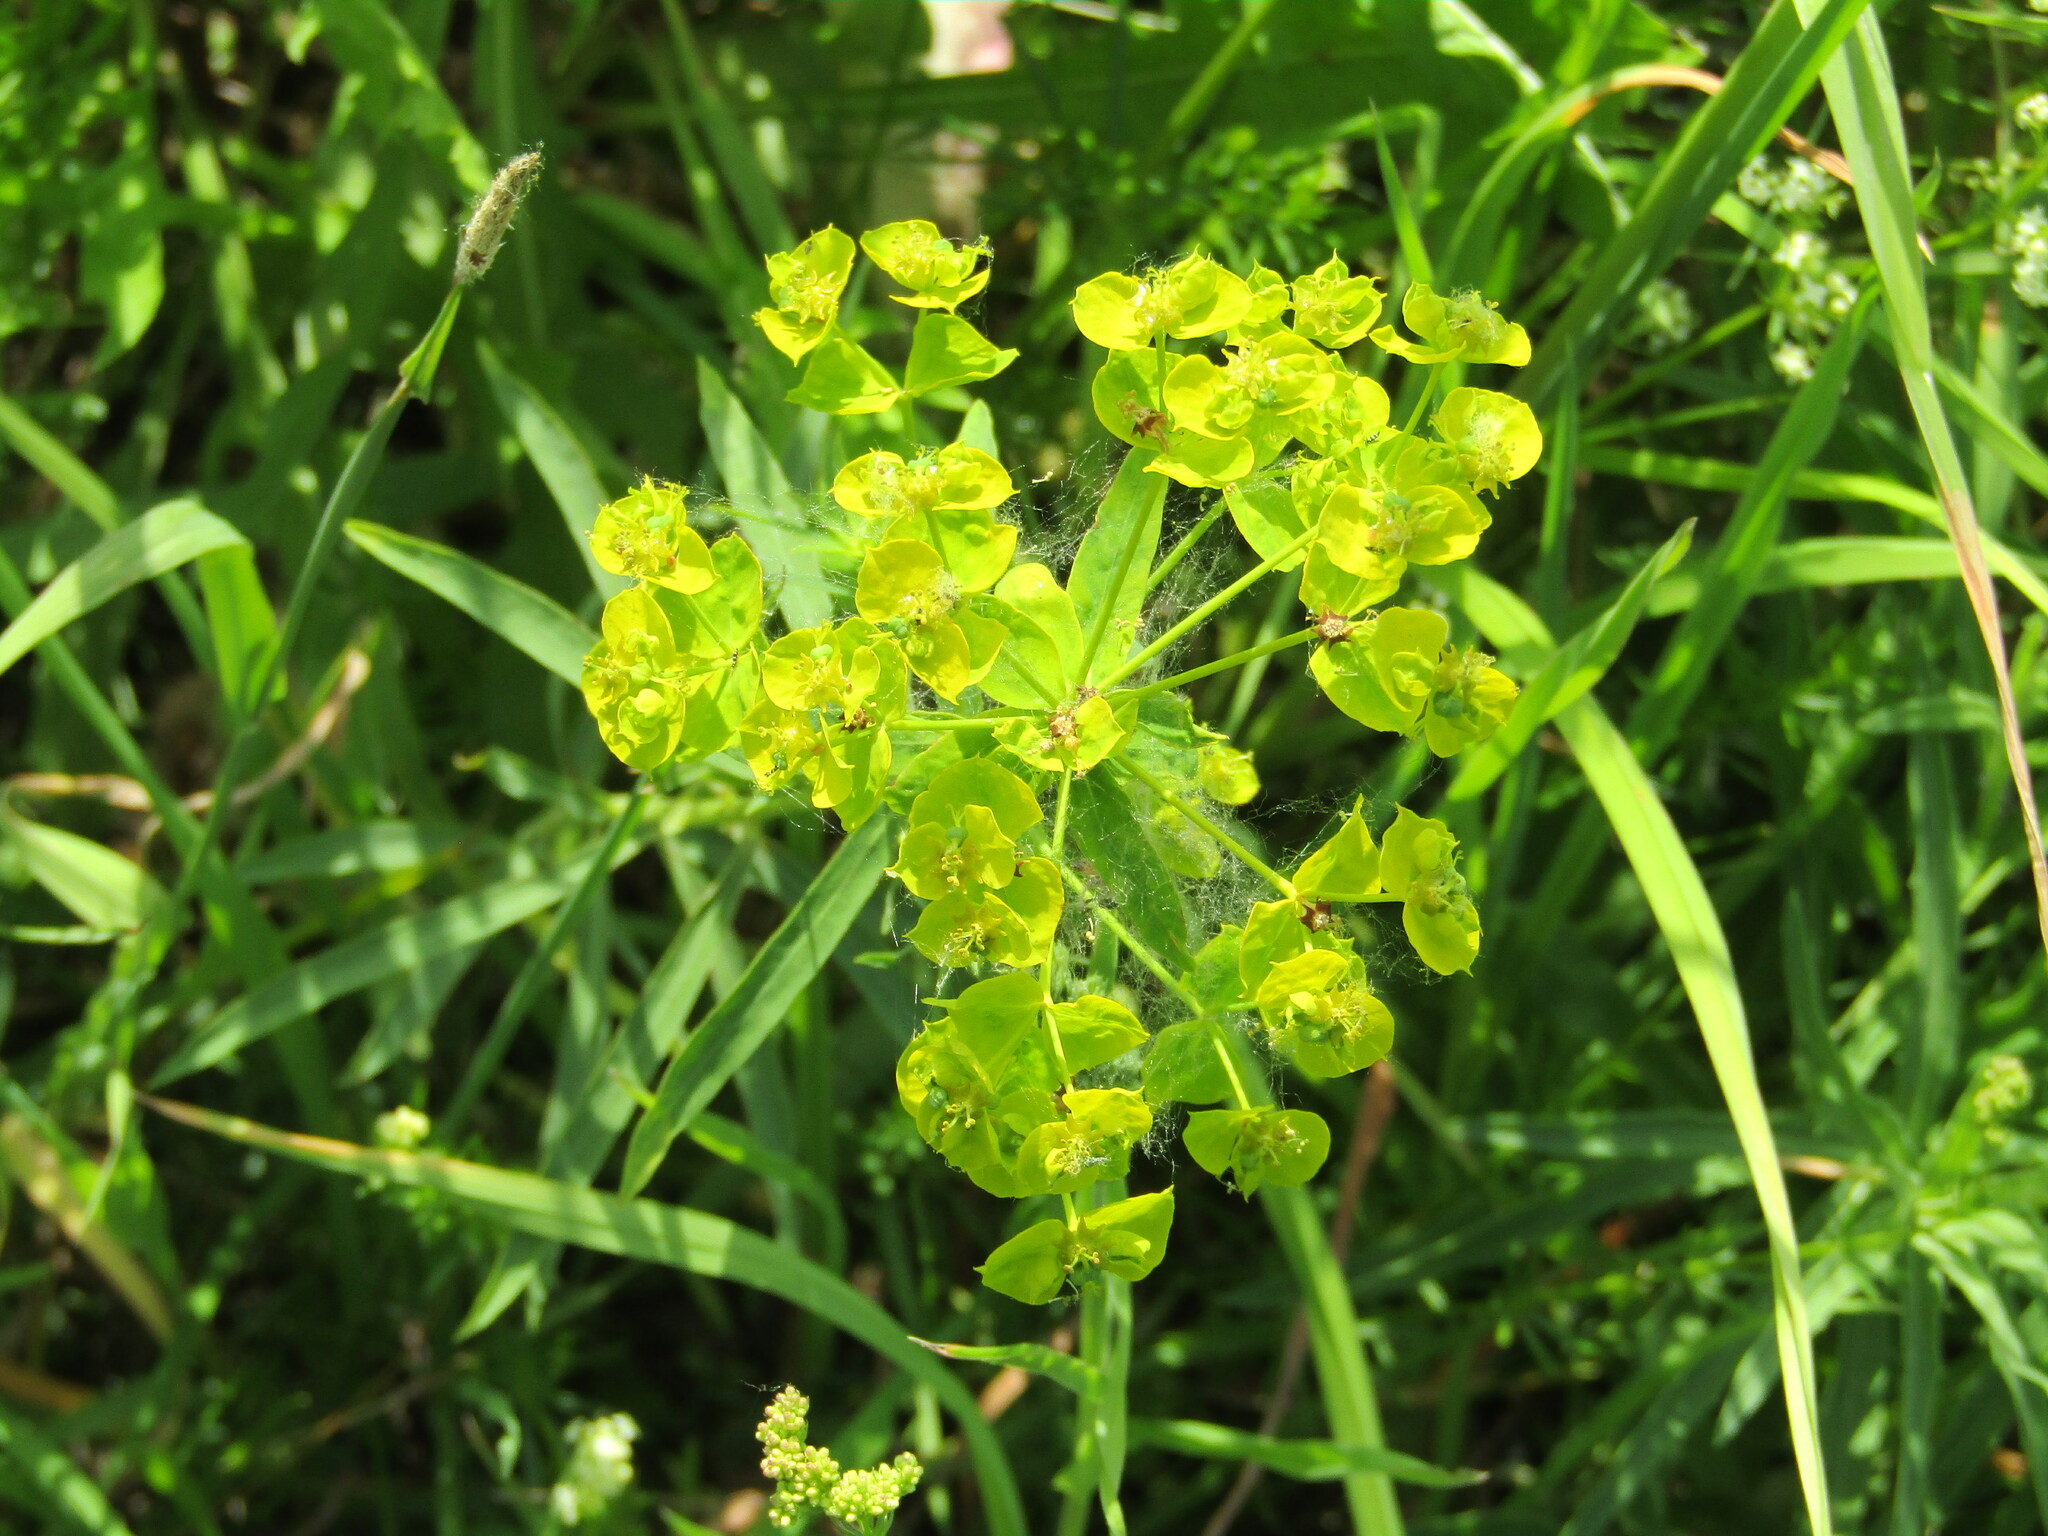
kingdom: Plantae
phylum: Tracheophyta
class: Magnoliopsida
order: Malpighiales
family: Euphorbiaceae
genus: Euphorbia
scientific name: Euphorbia virgata
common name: Leafy spurge
